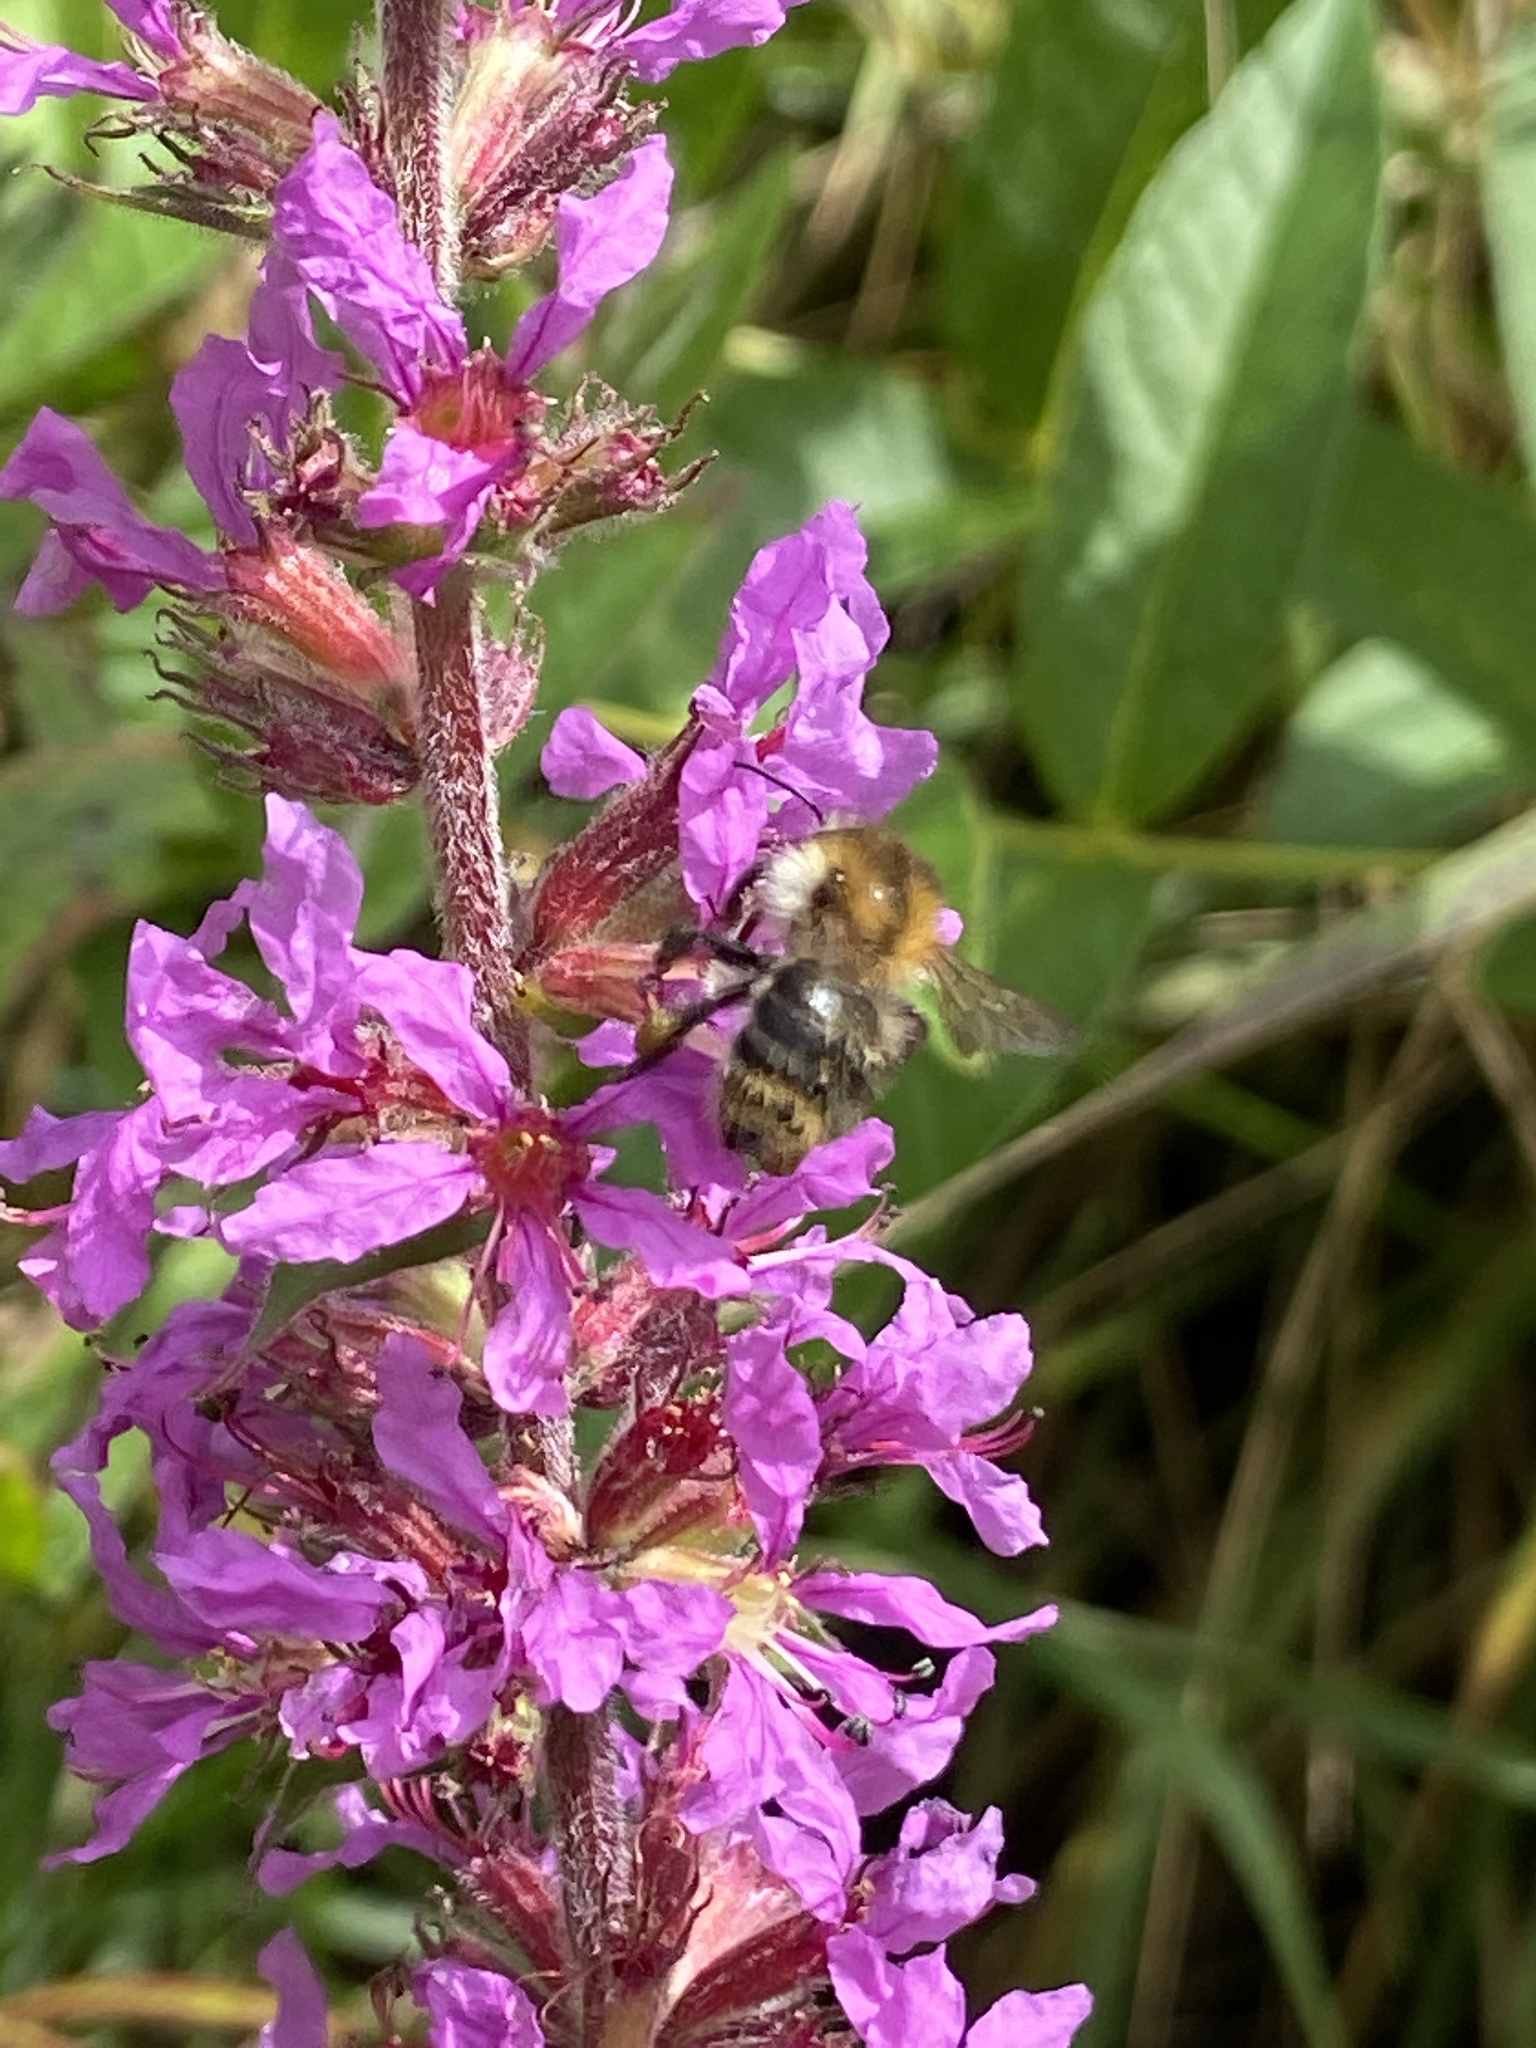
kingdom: Animalia
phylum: Arthropoda
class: Insecta
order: Hymenoptera
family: Apidae
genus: Bombus
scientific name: Bombus pascuorum
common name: Common carder bee
